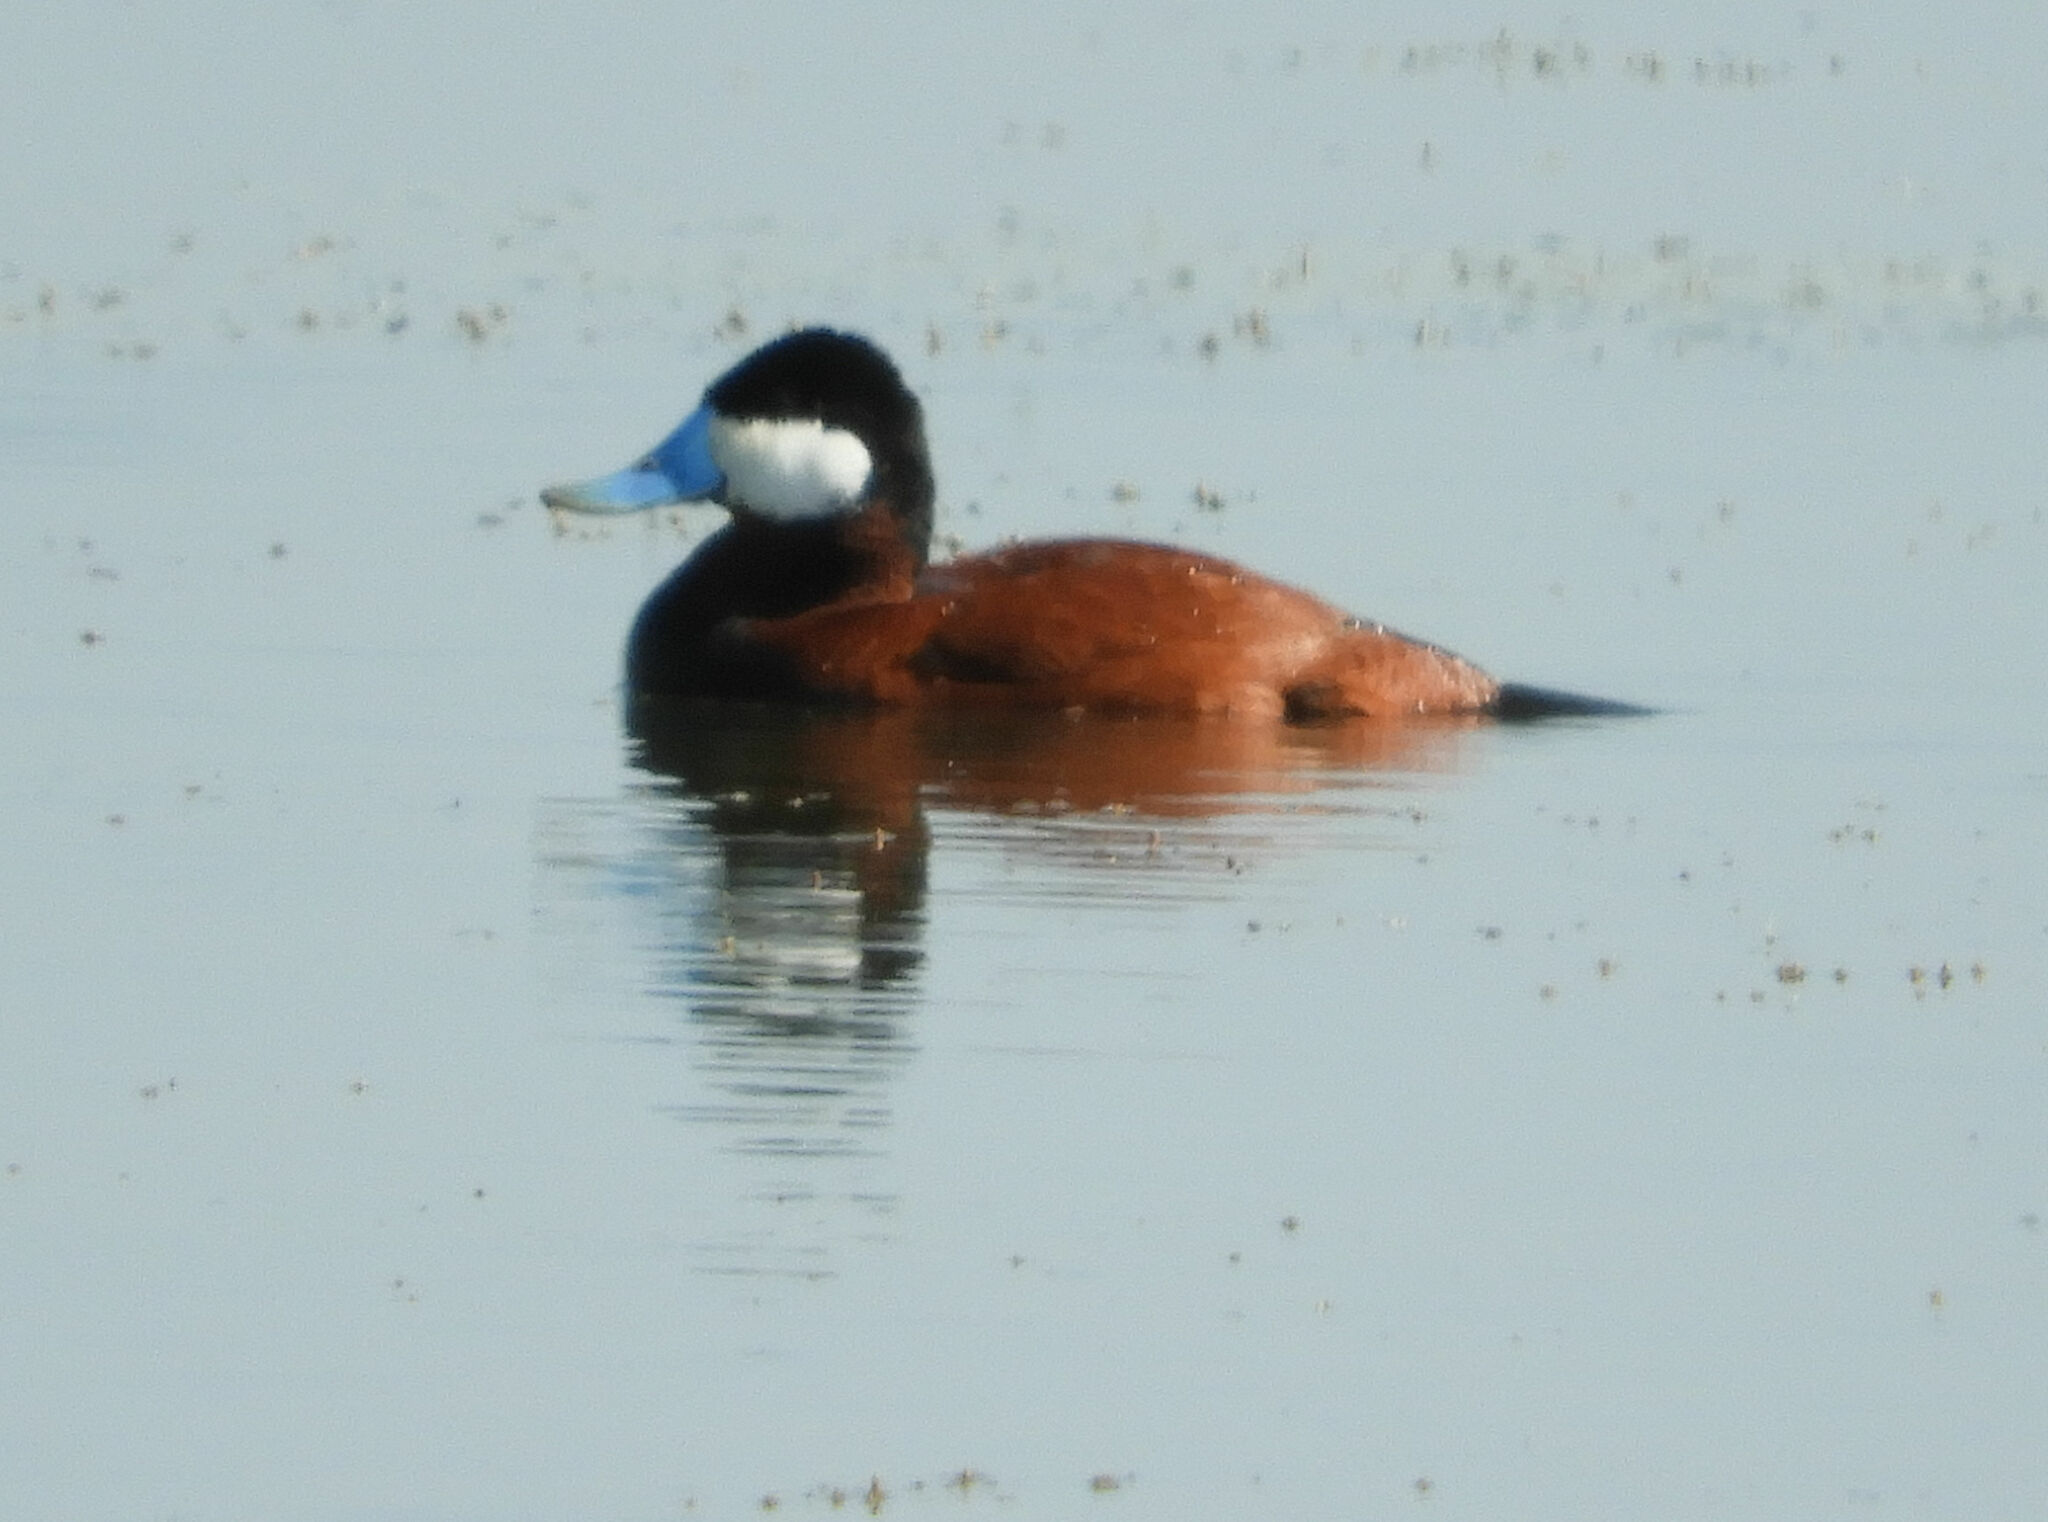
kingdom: Animalia
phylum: Chordata
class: Aves
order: Anseriformes
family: Anatidae
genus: Oxyura
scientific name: Oxyura jamaicensis
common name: Ruddy duck
